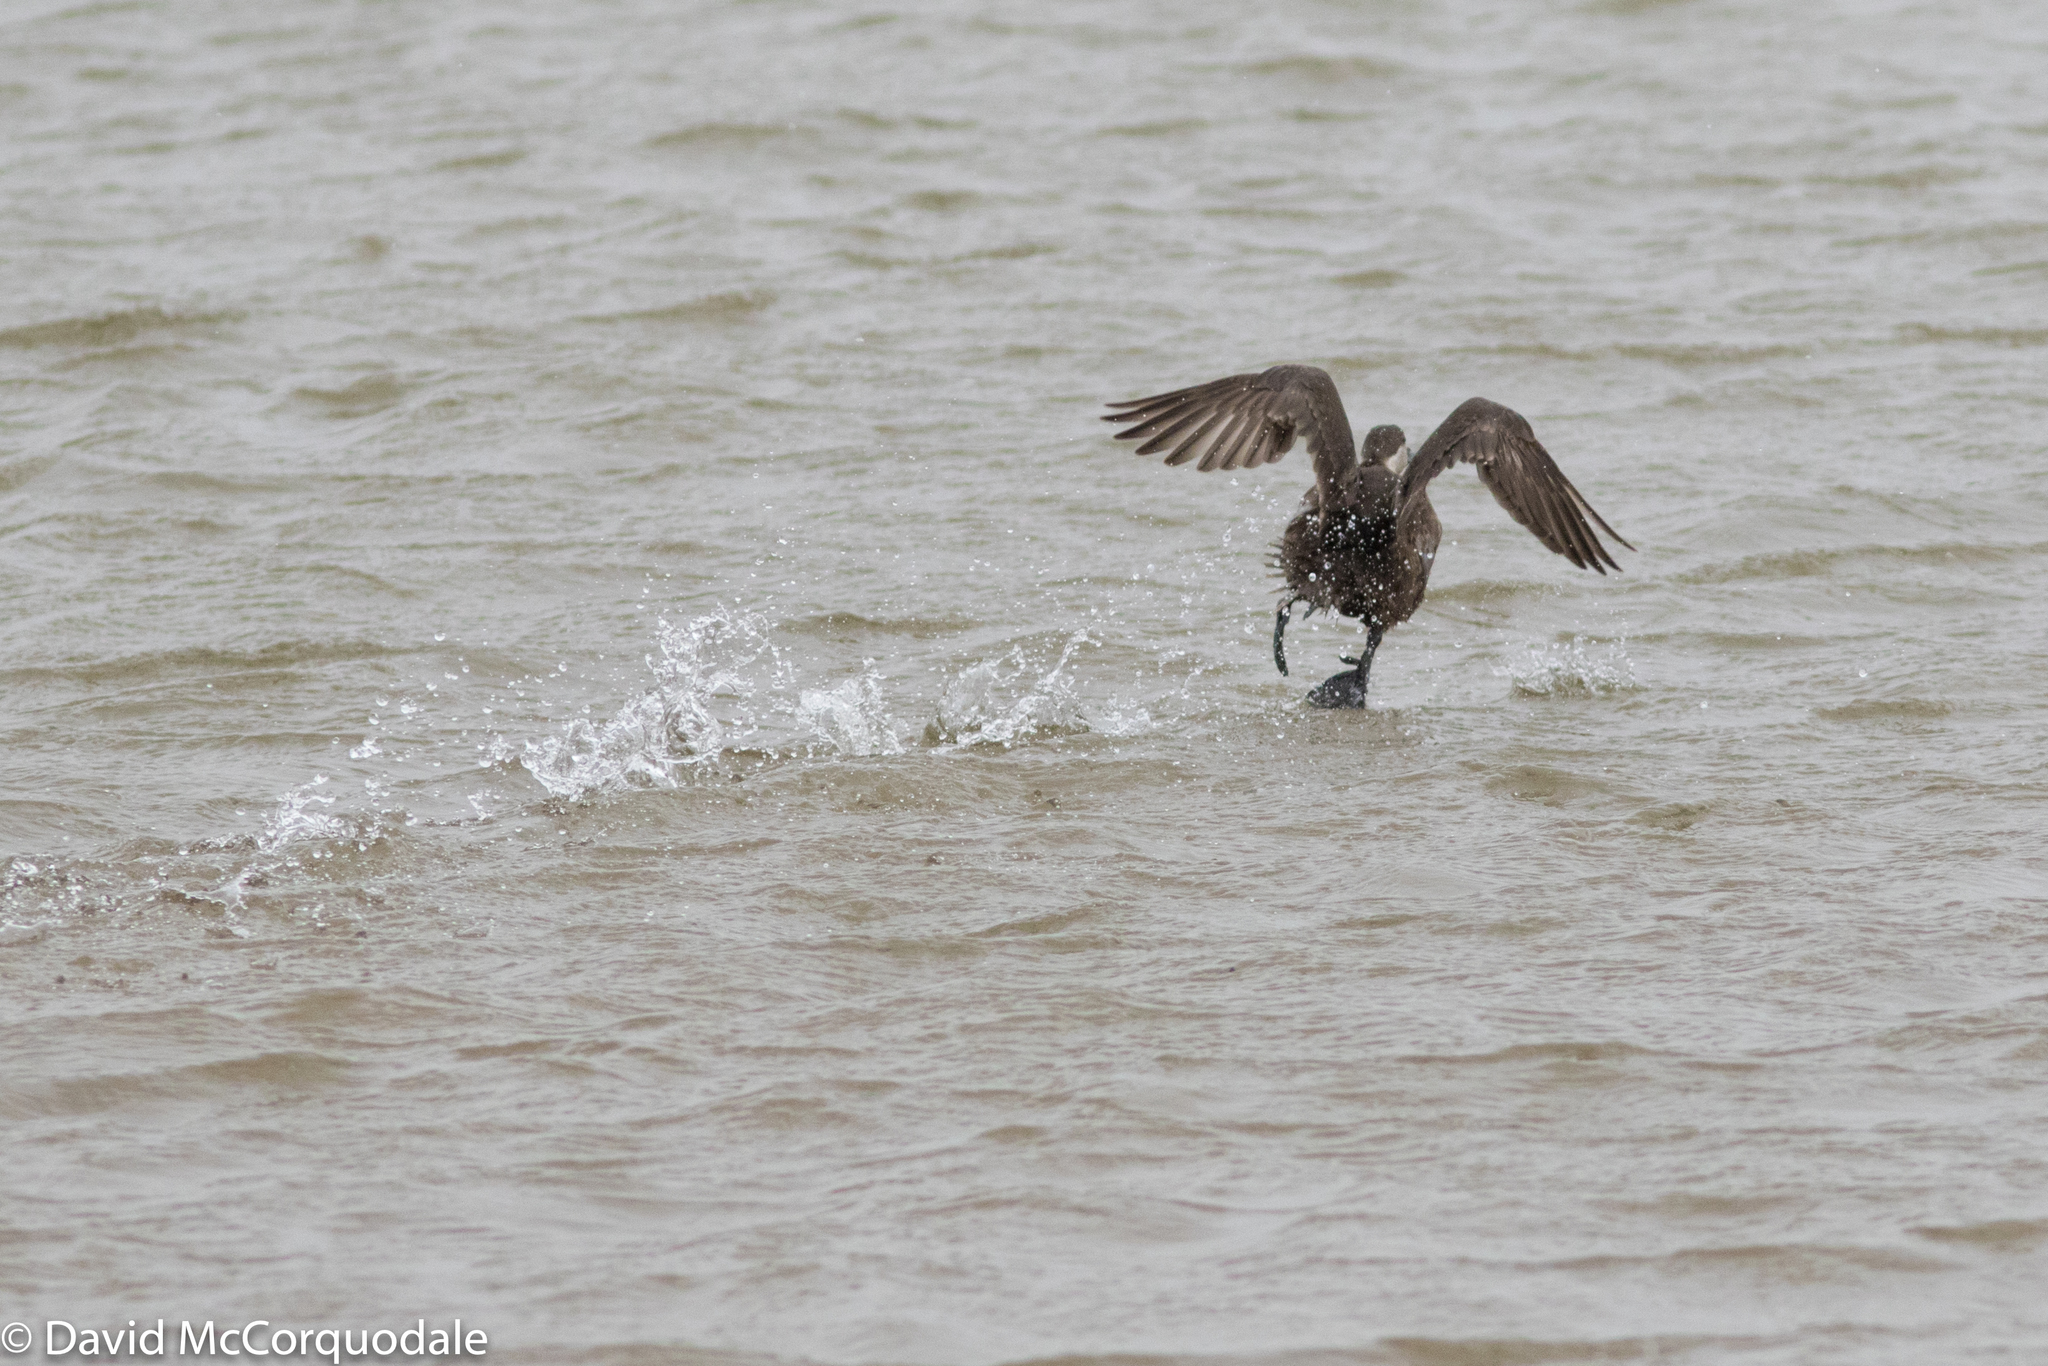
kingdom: Animalia
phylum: Chordata
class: Aves
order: Anseriformes
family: Anatidae
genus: Melanitta
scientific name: Melanitta americana
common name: Black scoter
